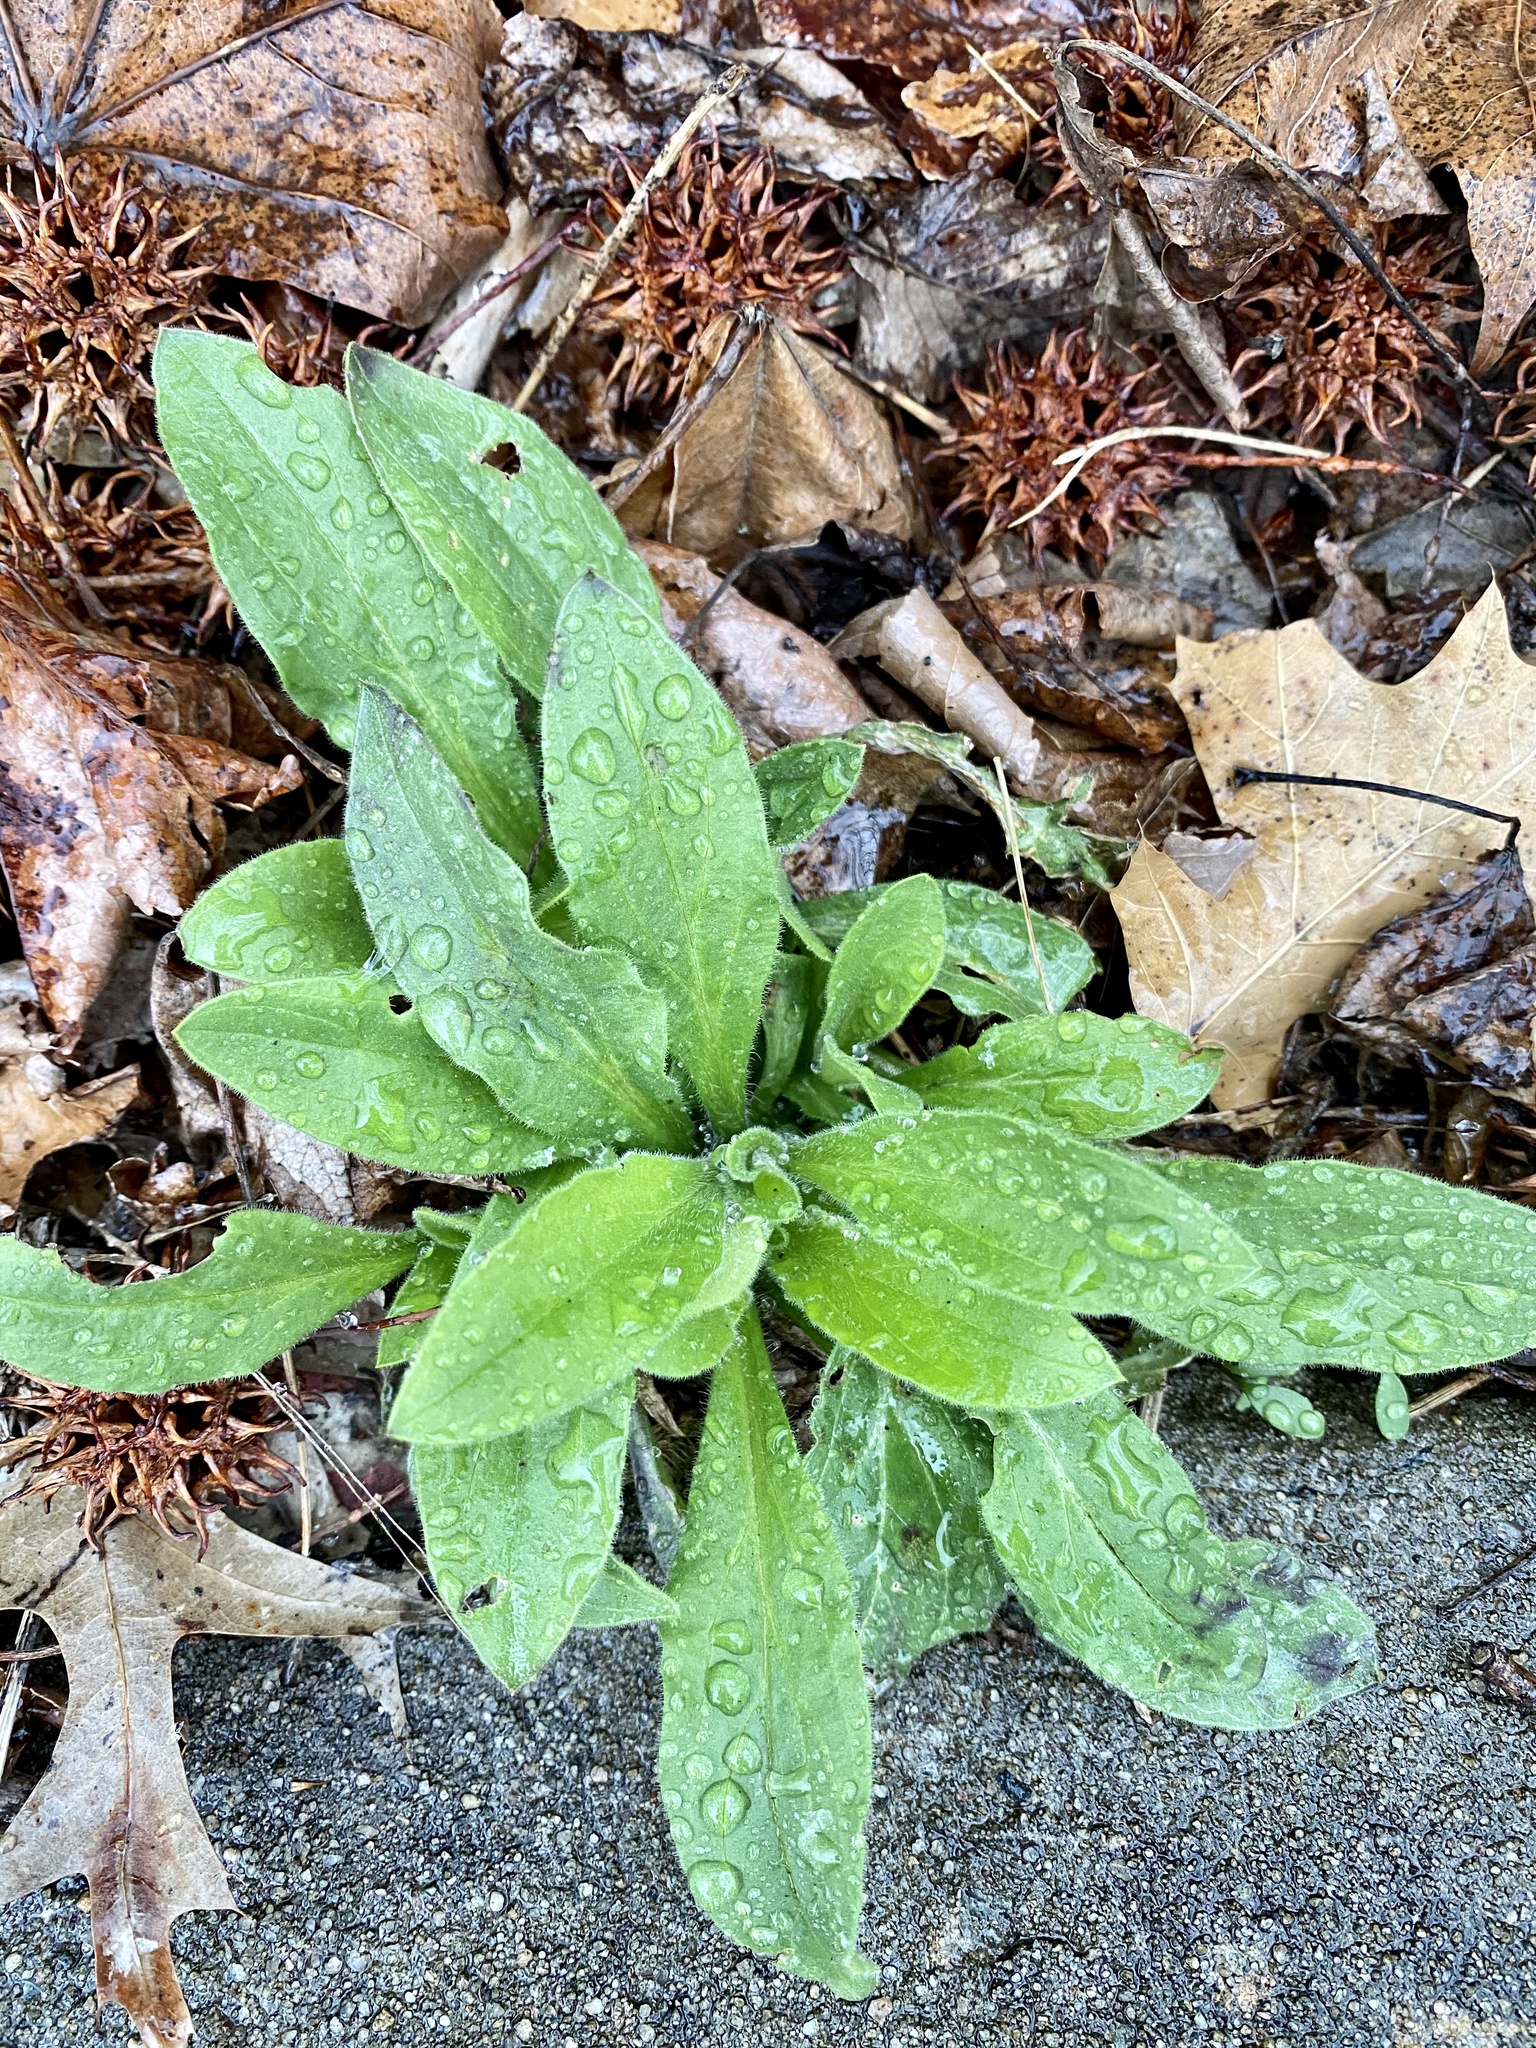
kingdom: Plantae
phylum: Tracheophyta
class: Magnoliopsida
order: Caryophyllales
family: Caryophyllaceae
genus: Silene
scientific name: Silene latifolia
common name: White campion
